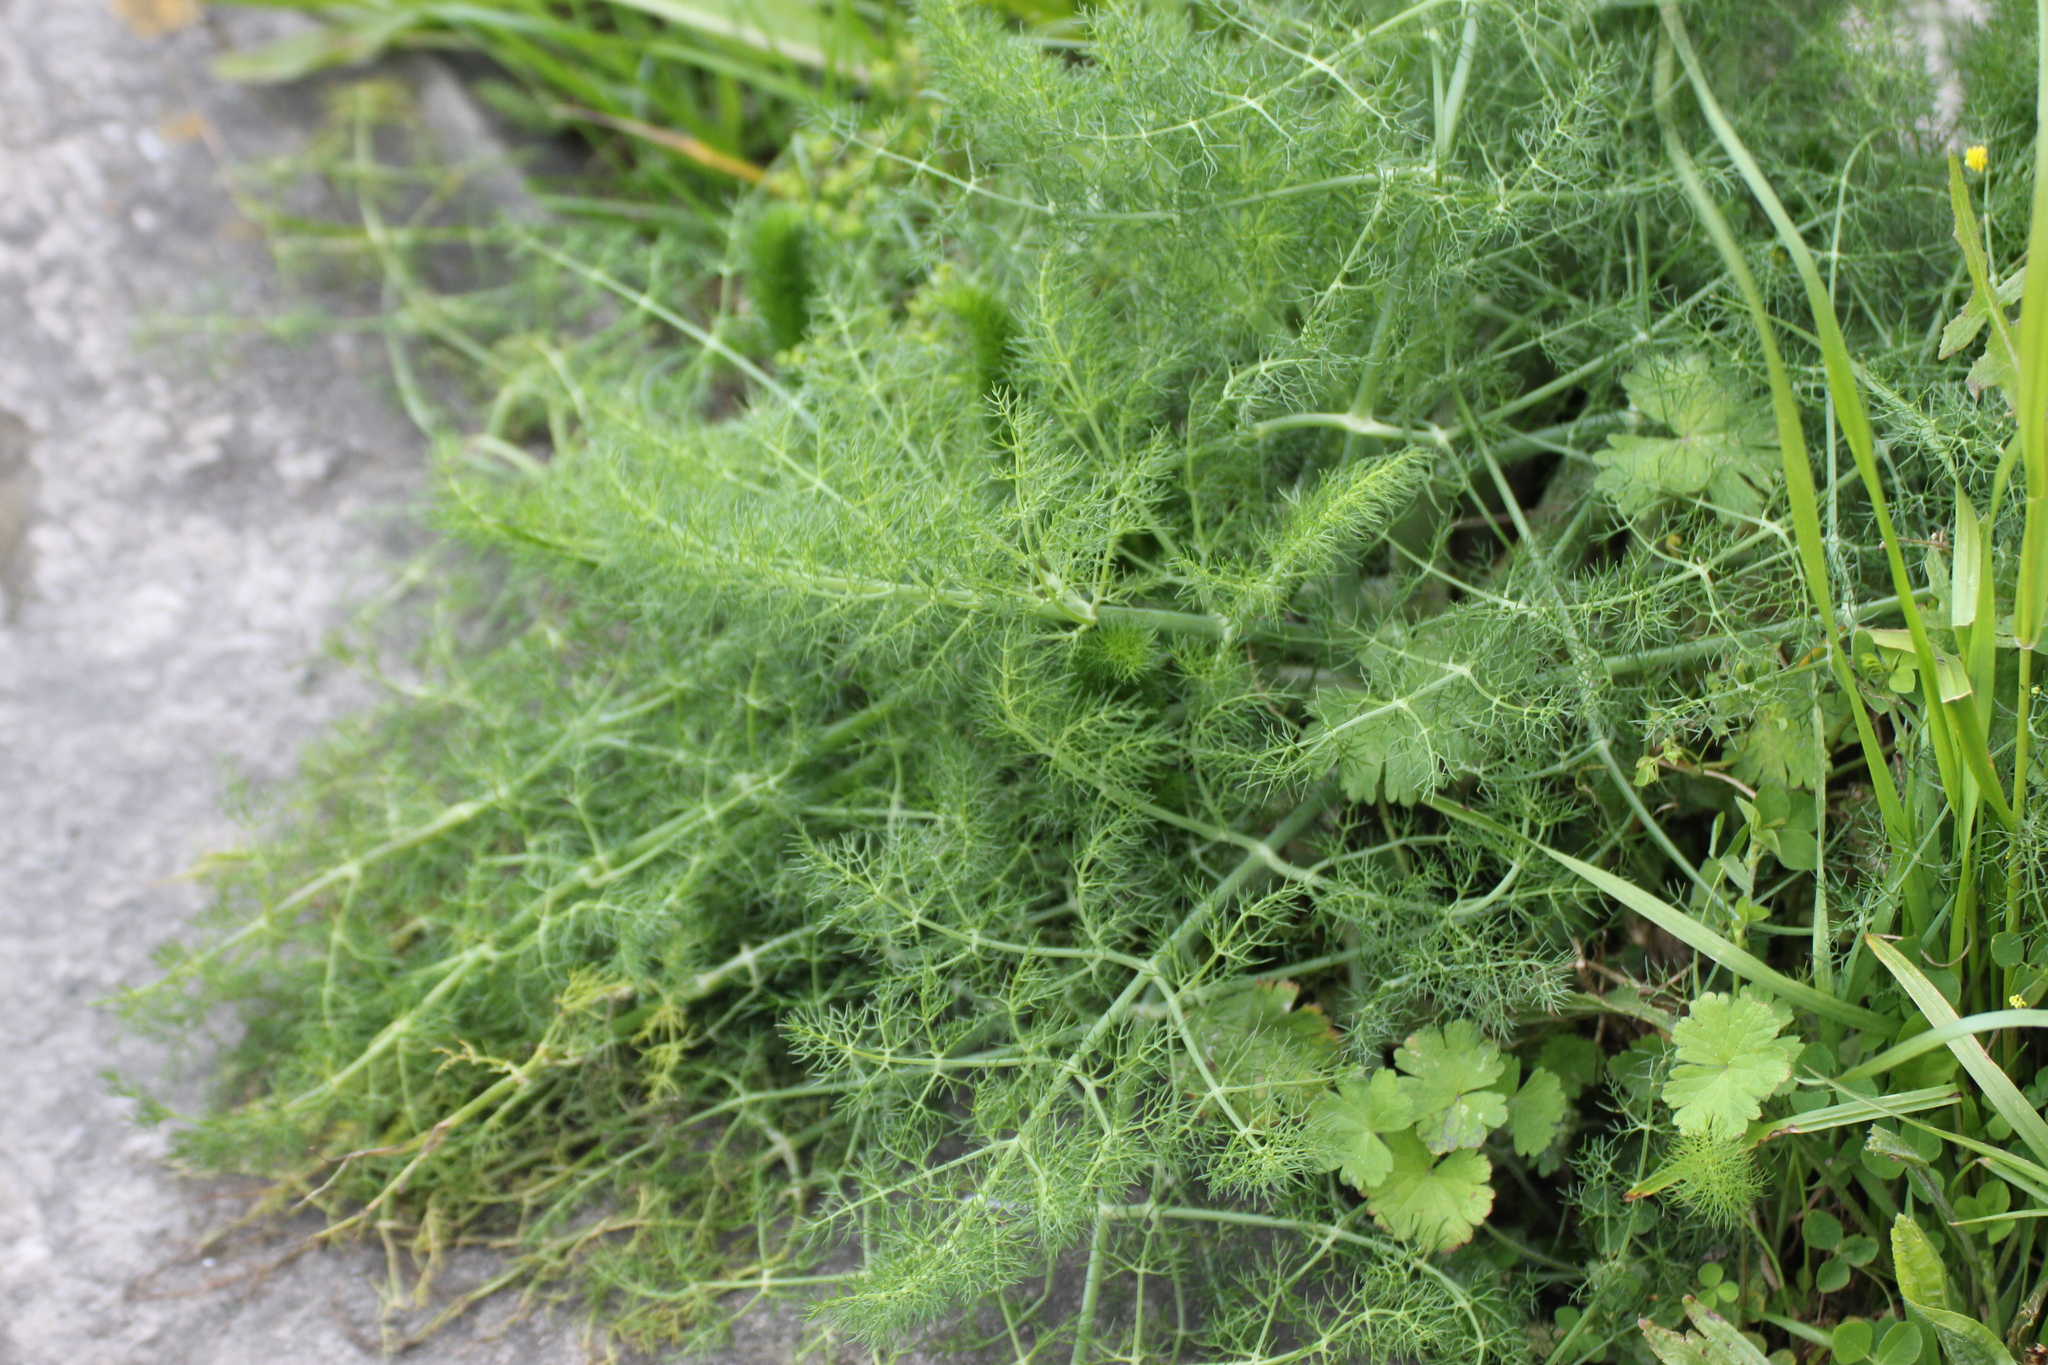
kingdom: Plantae
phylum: Tracheophyta
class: Magnoliopsida
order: Apiales
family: Apiaceae
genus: Foeniculum
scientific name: Foeniculum vulgare
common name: Fennel
